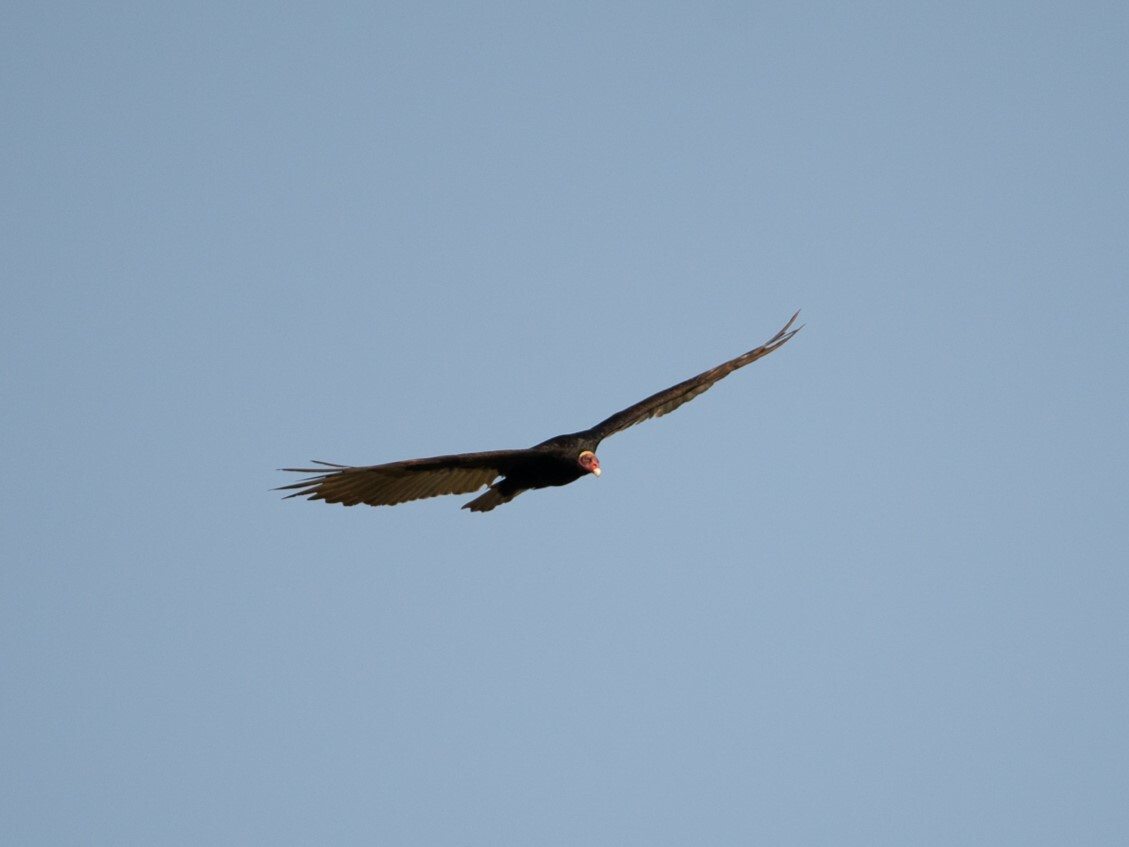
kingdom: Animalia
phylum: Chordata
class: Aves
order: Accipitriformes
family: Cathartidae
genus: Cathartes
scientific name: Cathartes aura
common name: Turkey vulture
